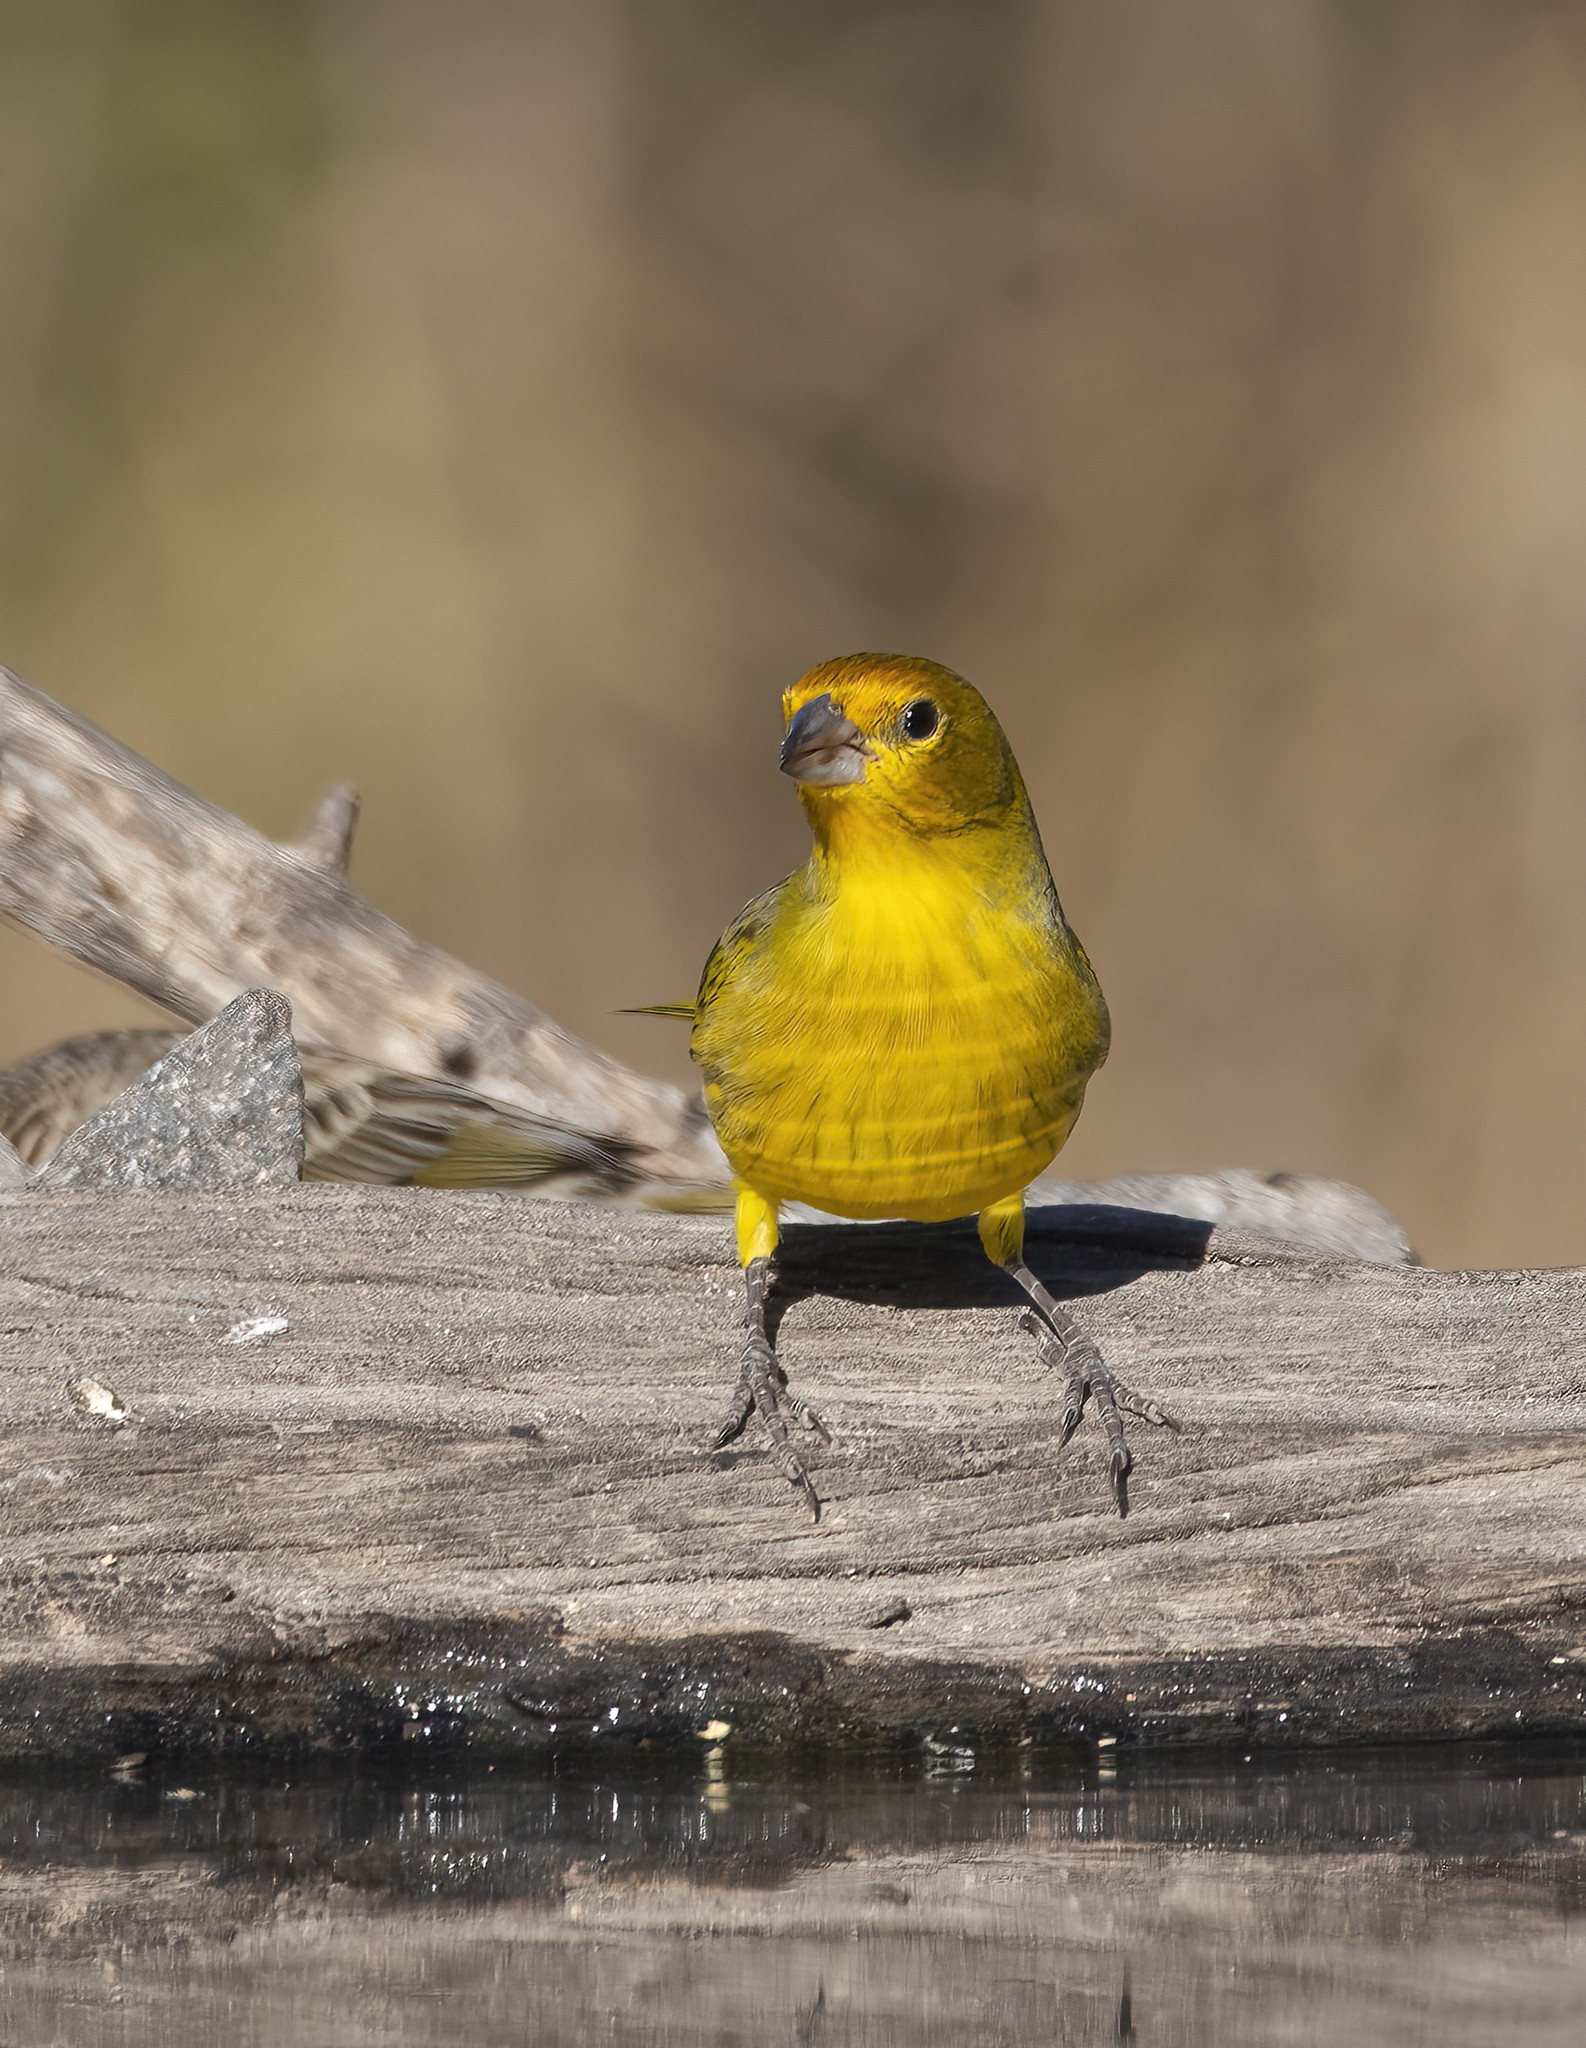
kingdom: Animalia
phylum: Chordata
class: Aves
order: Passeriformes
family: Thraupidae
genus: Sicalis
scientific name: Sicalis flaveola
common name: Saffron finch
